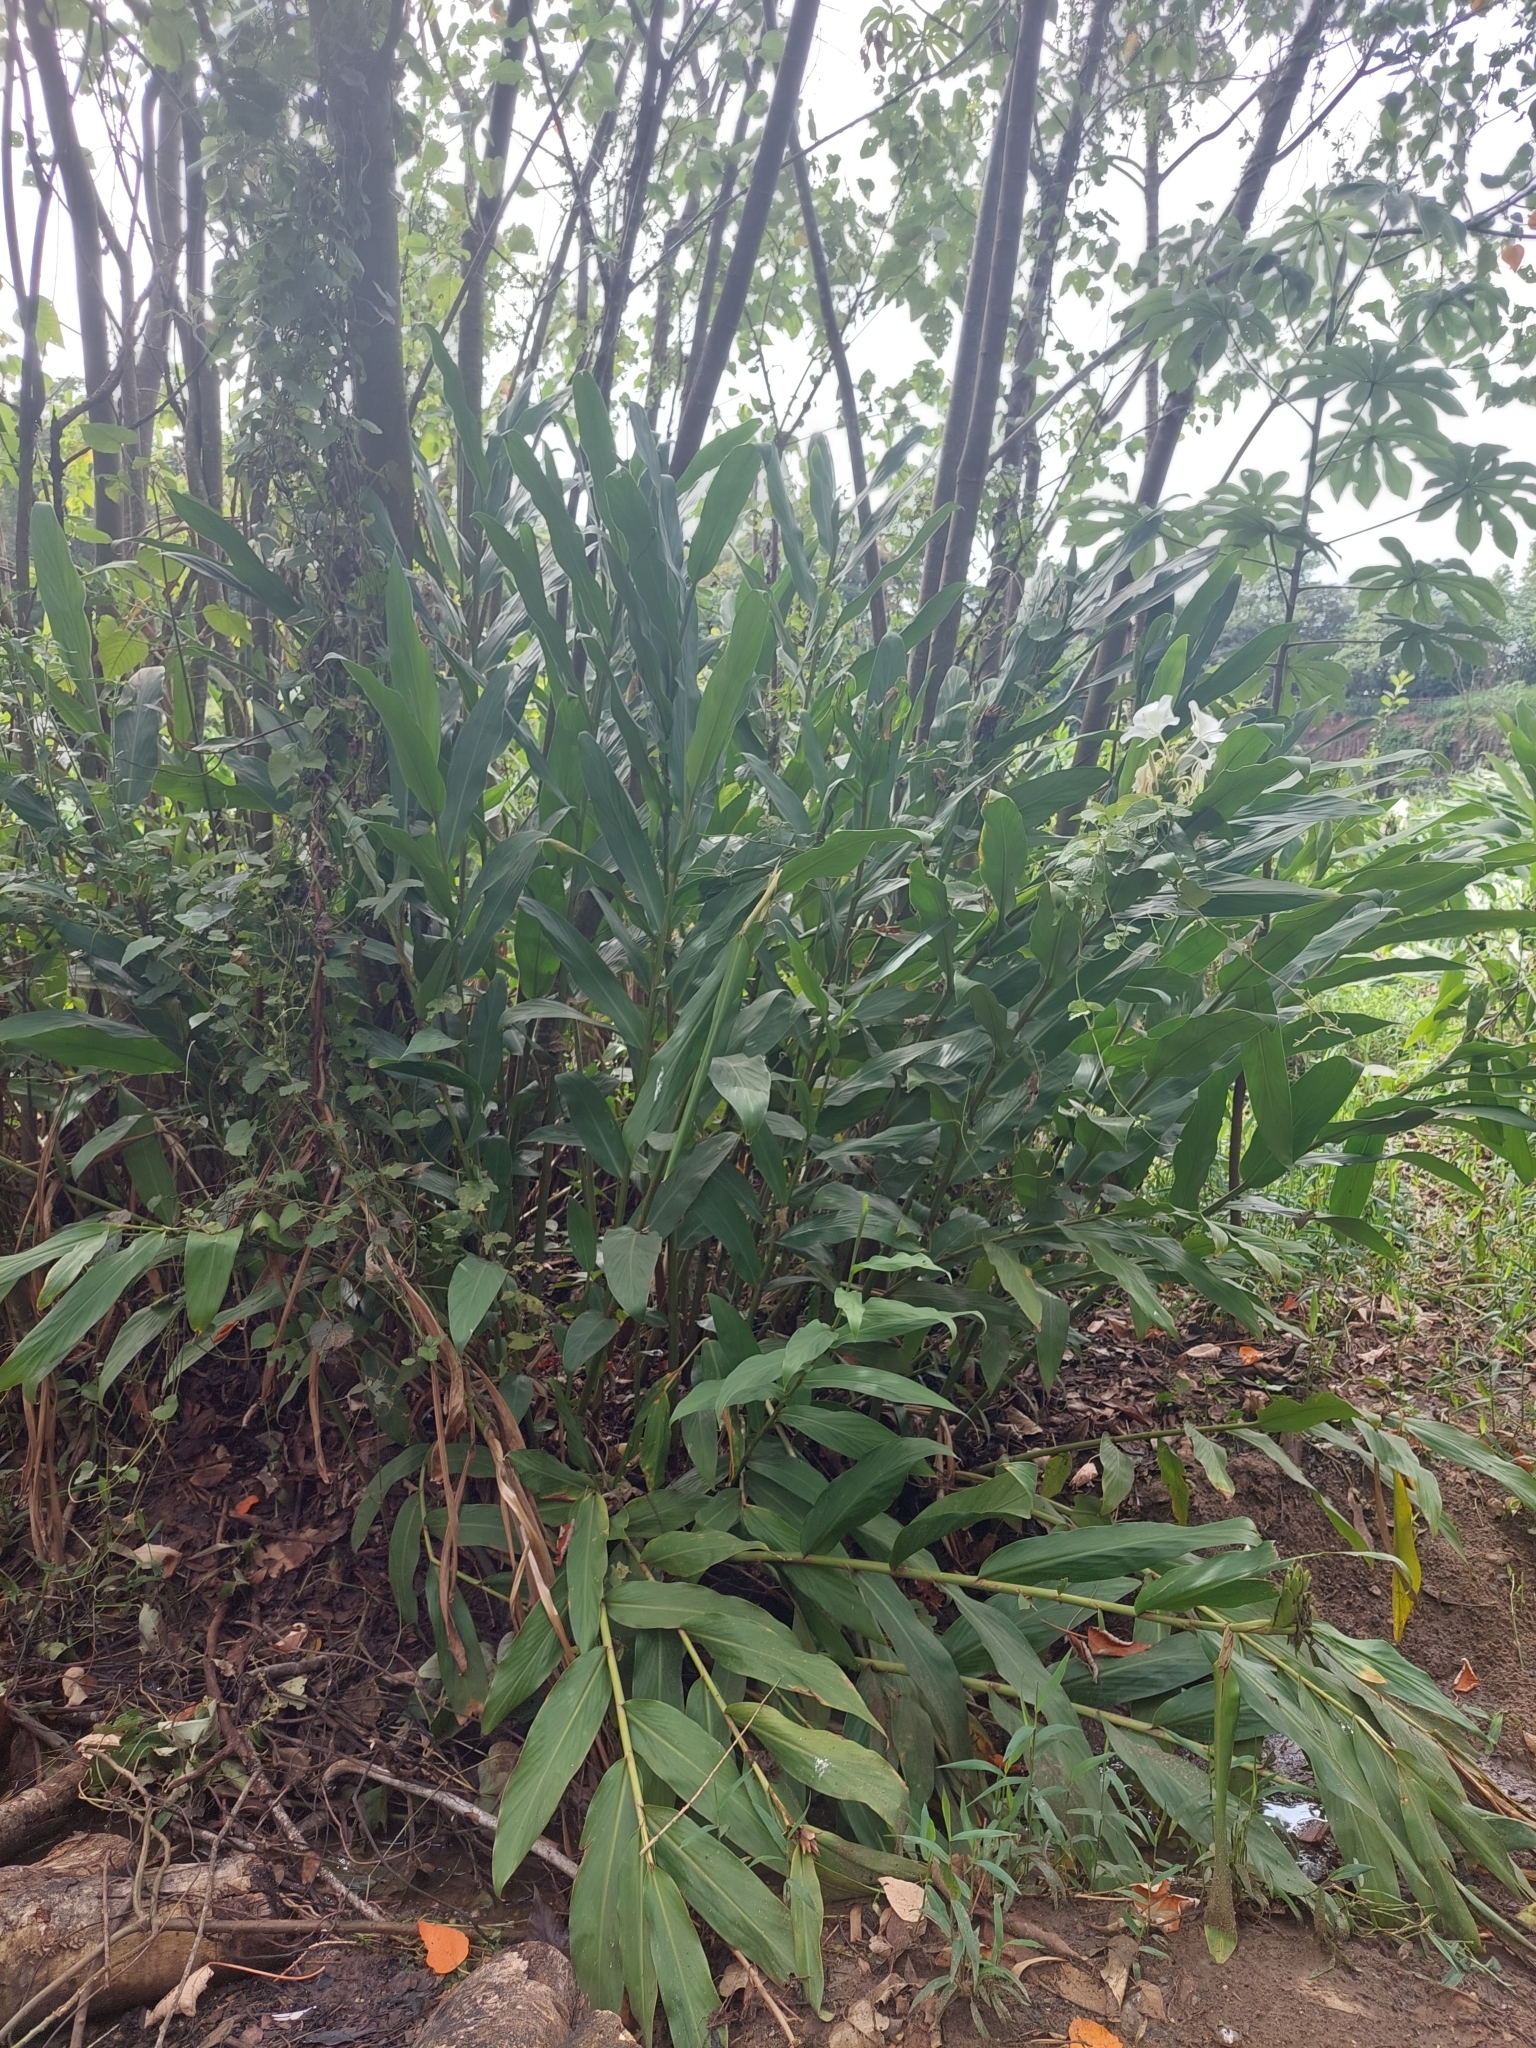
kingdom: Plantae
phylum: Tracheophyta
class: Liliopsida
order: Zingiberales
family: Zingiberaceae
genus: Hedychium
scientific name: Hedychium coronarium
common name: White garland-lily
